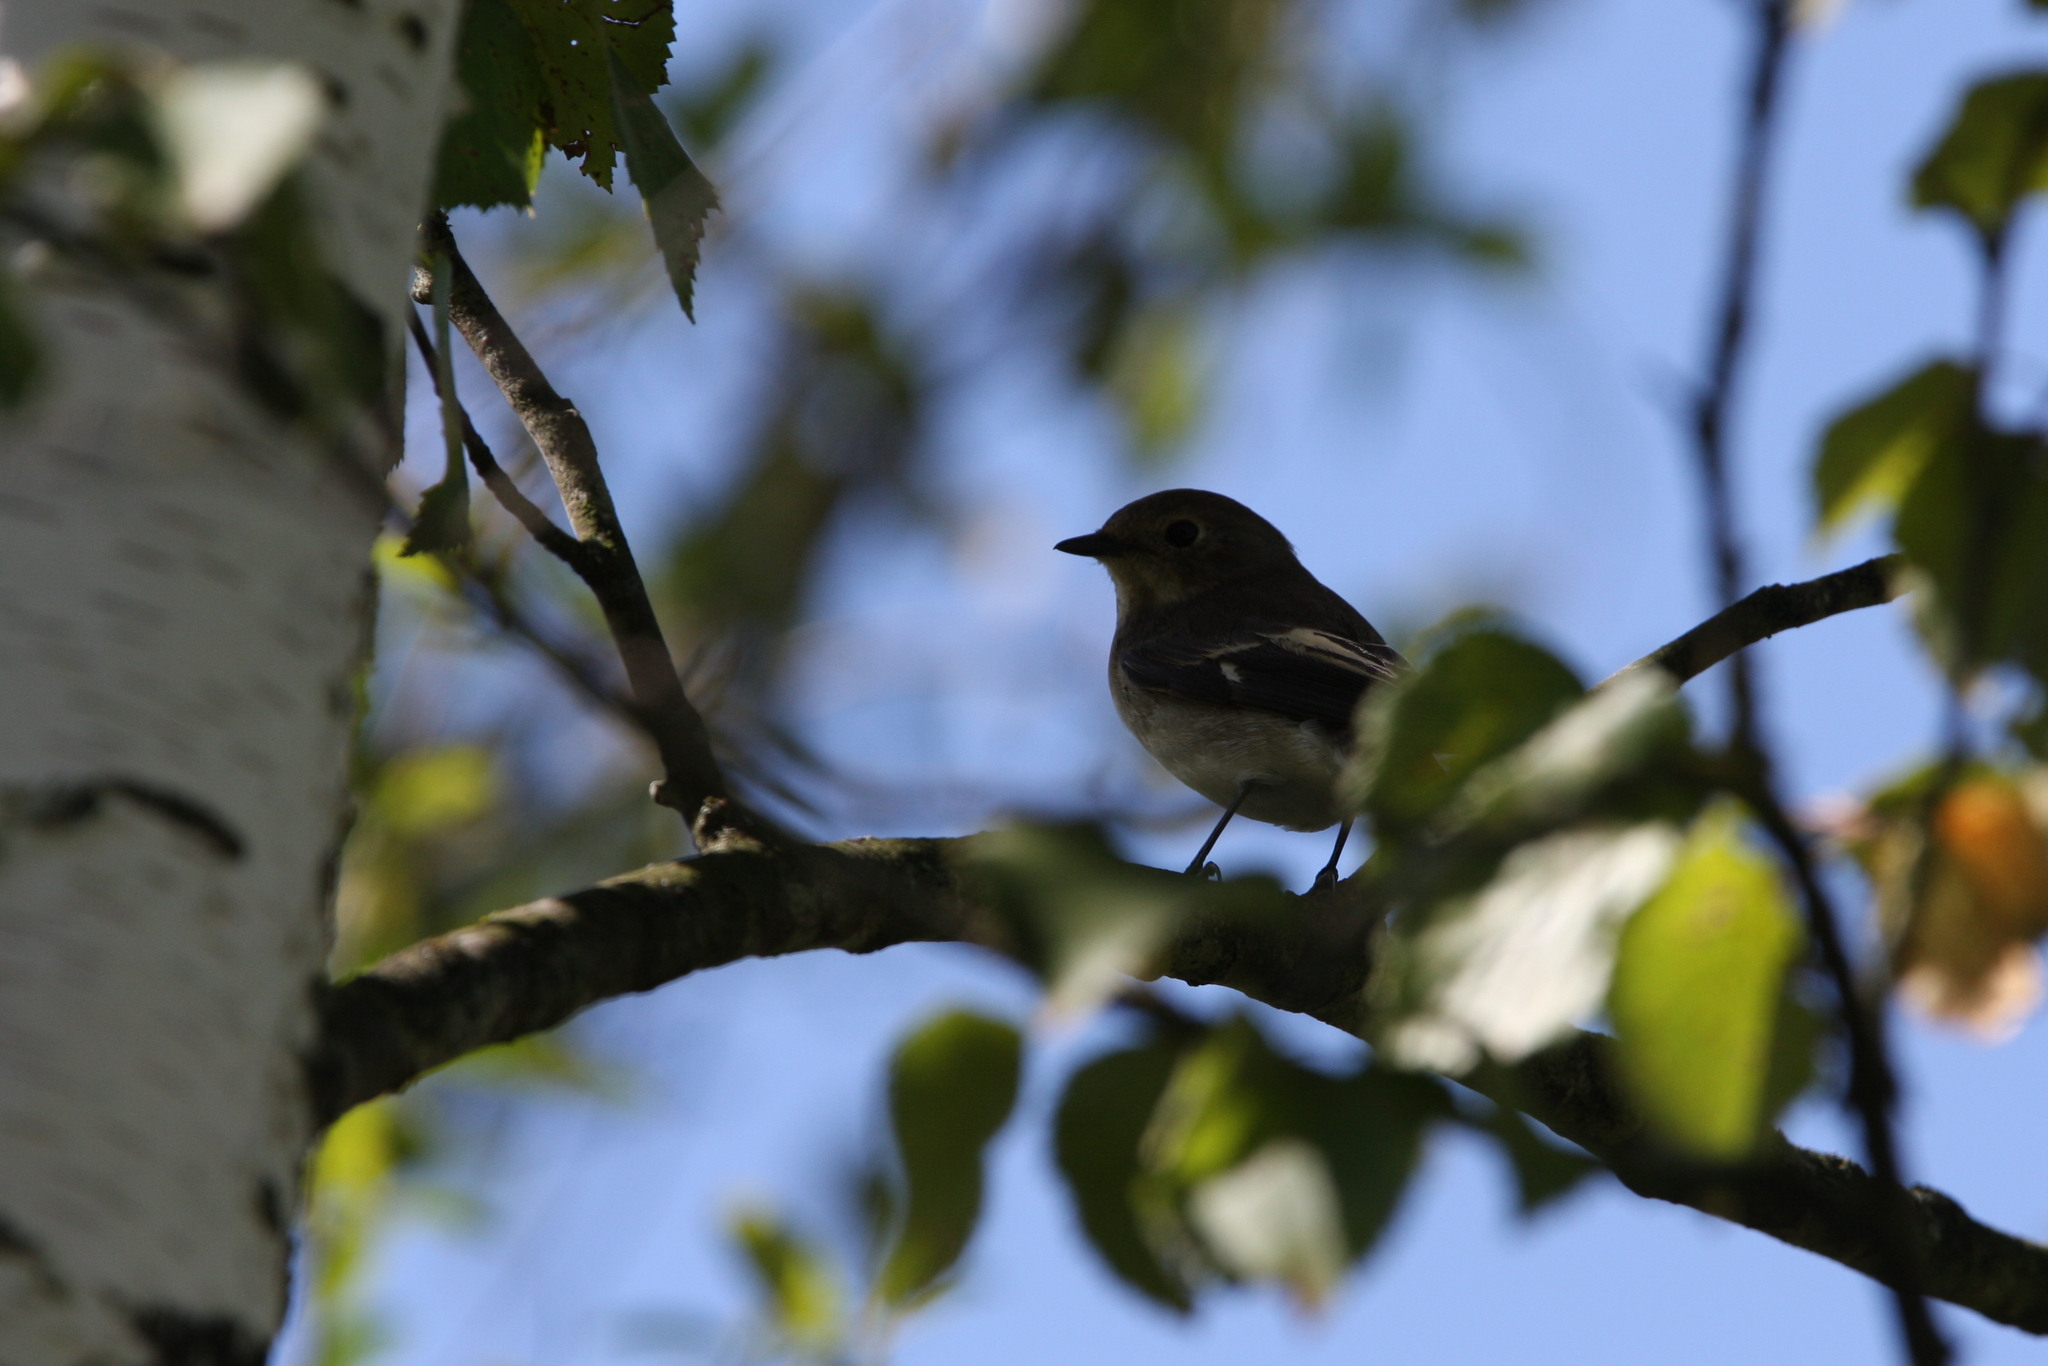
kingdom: Animalia
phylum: Chordata
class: Aves
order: Passeriformes
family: Muscicapidae
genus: Ficedula
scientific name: Ficedula hypoleuca
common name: European pied flycatcher
